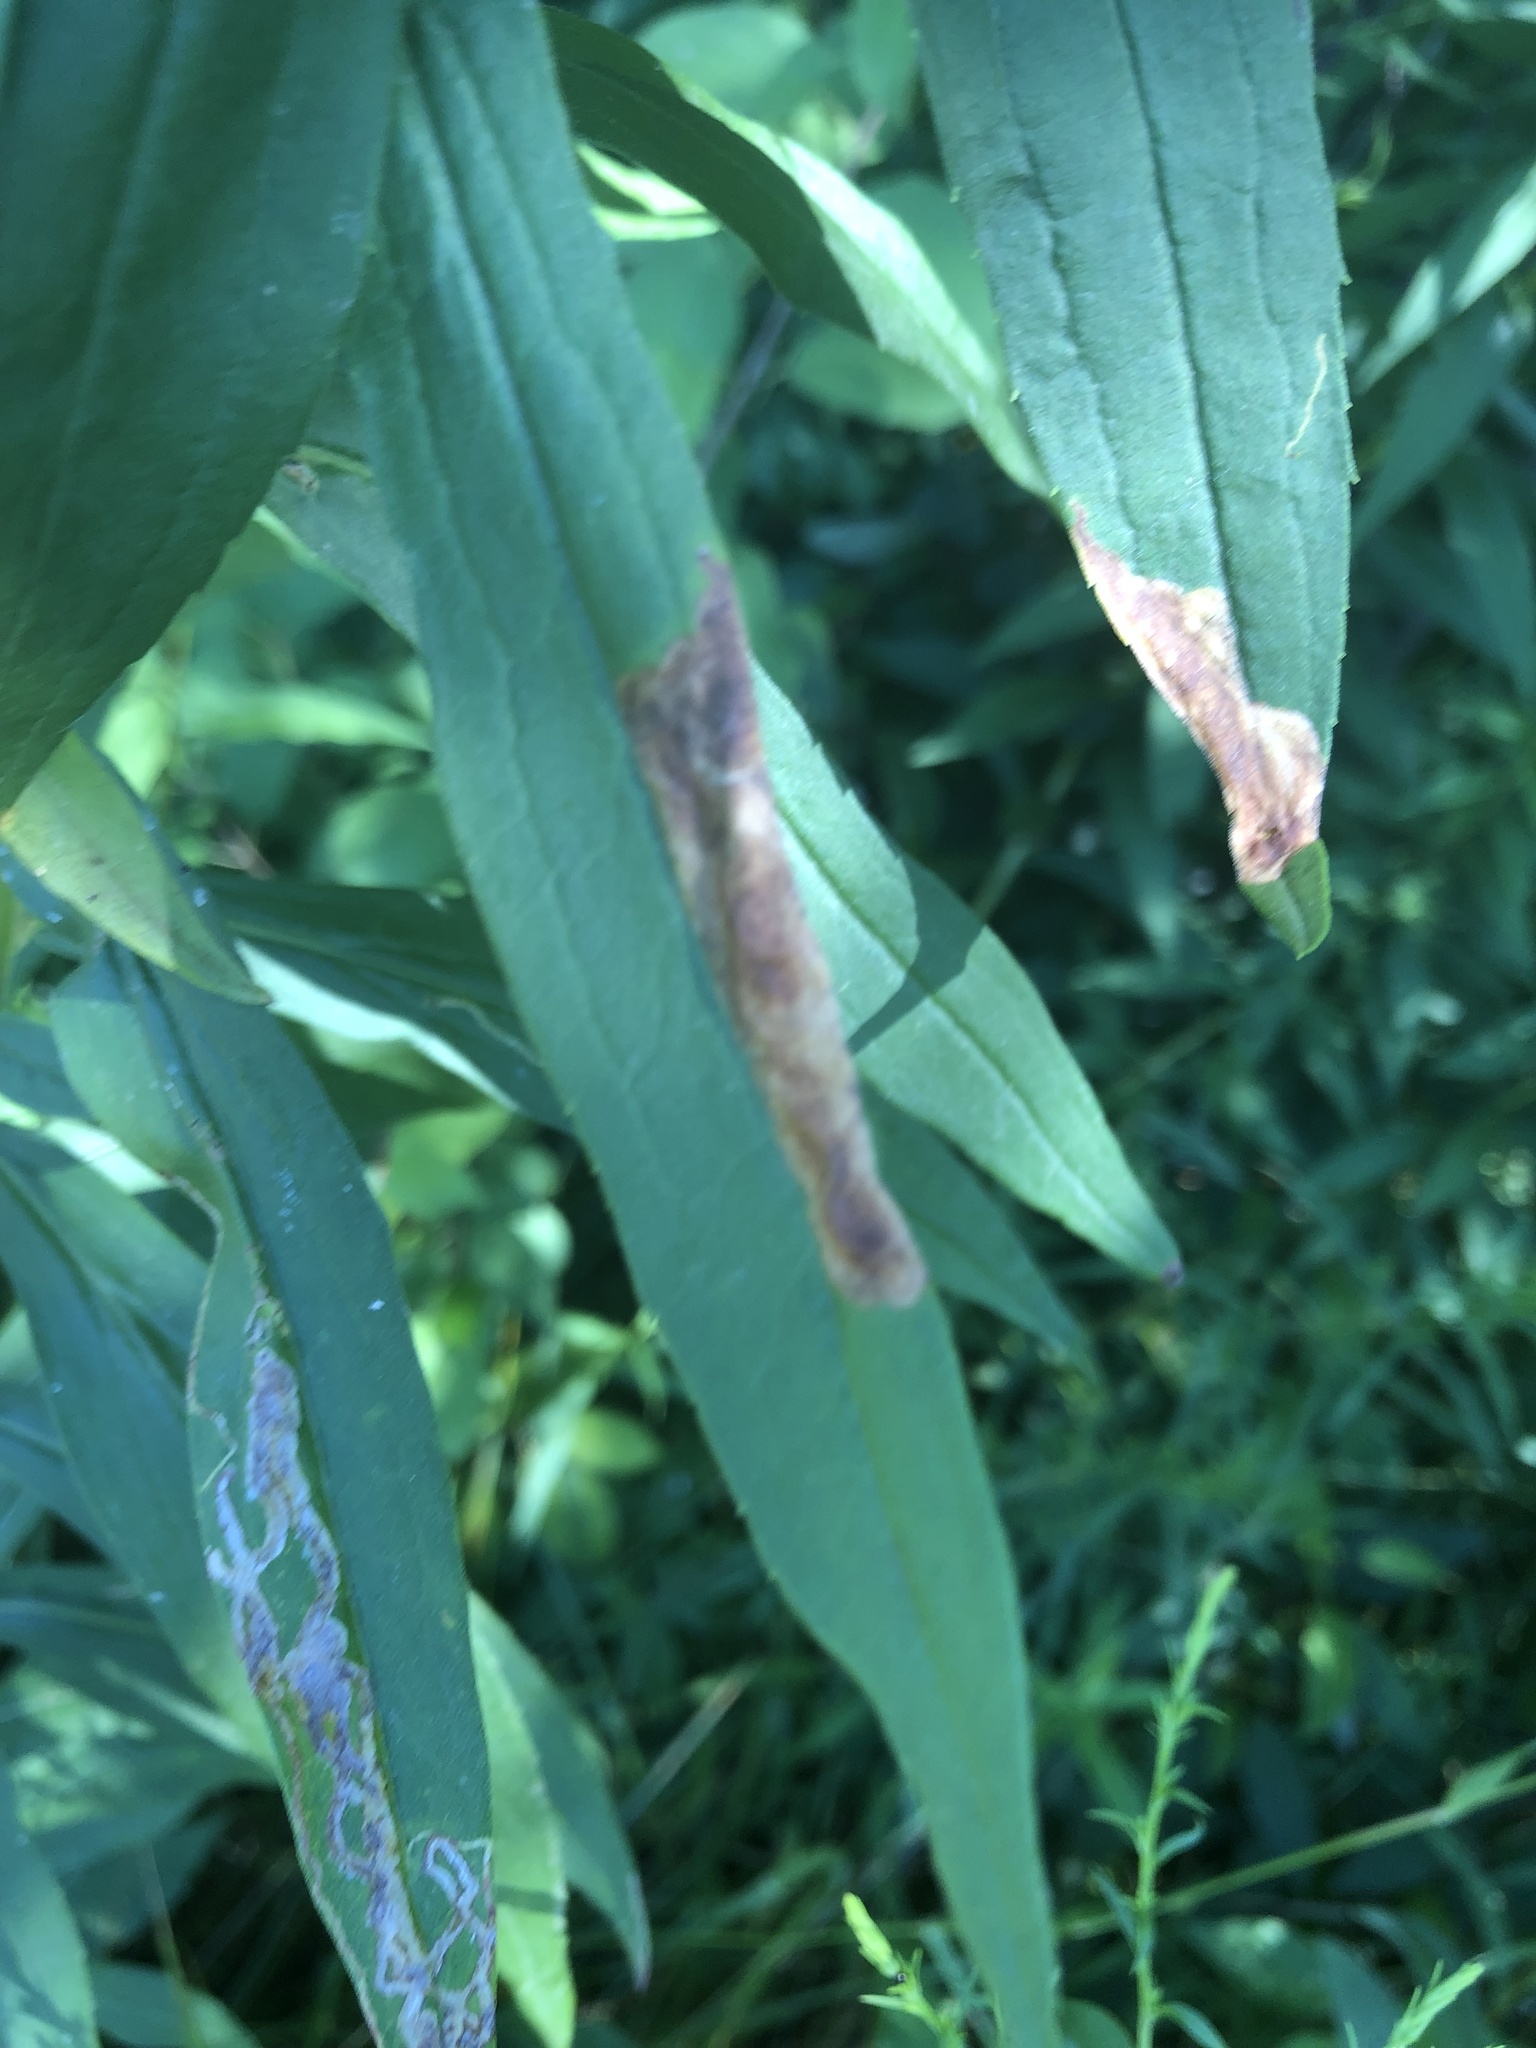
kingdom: Animalia
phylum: Arthropoda
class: Insecta
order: Diptera
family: Agromyzidae
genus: Nemorimyza
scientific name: Nemorimyza posticata
